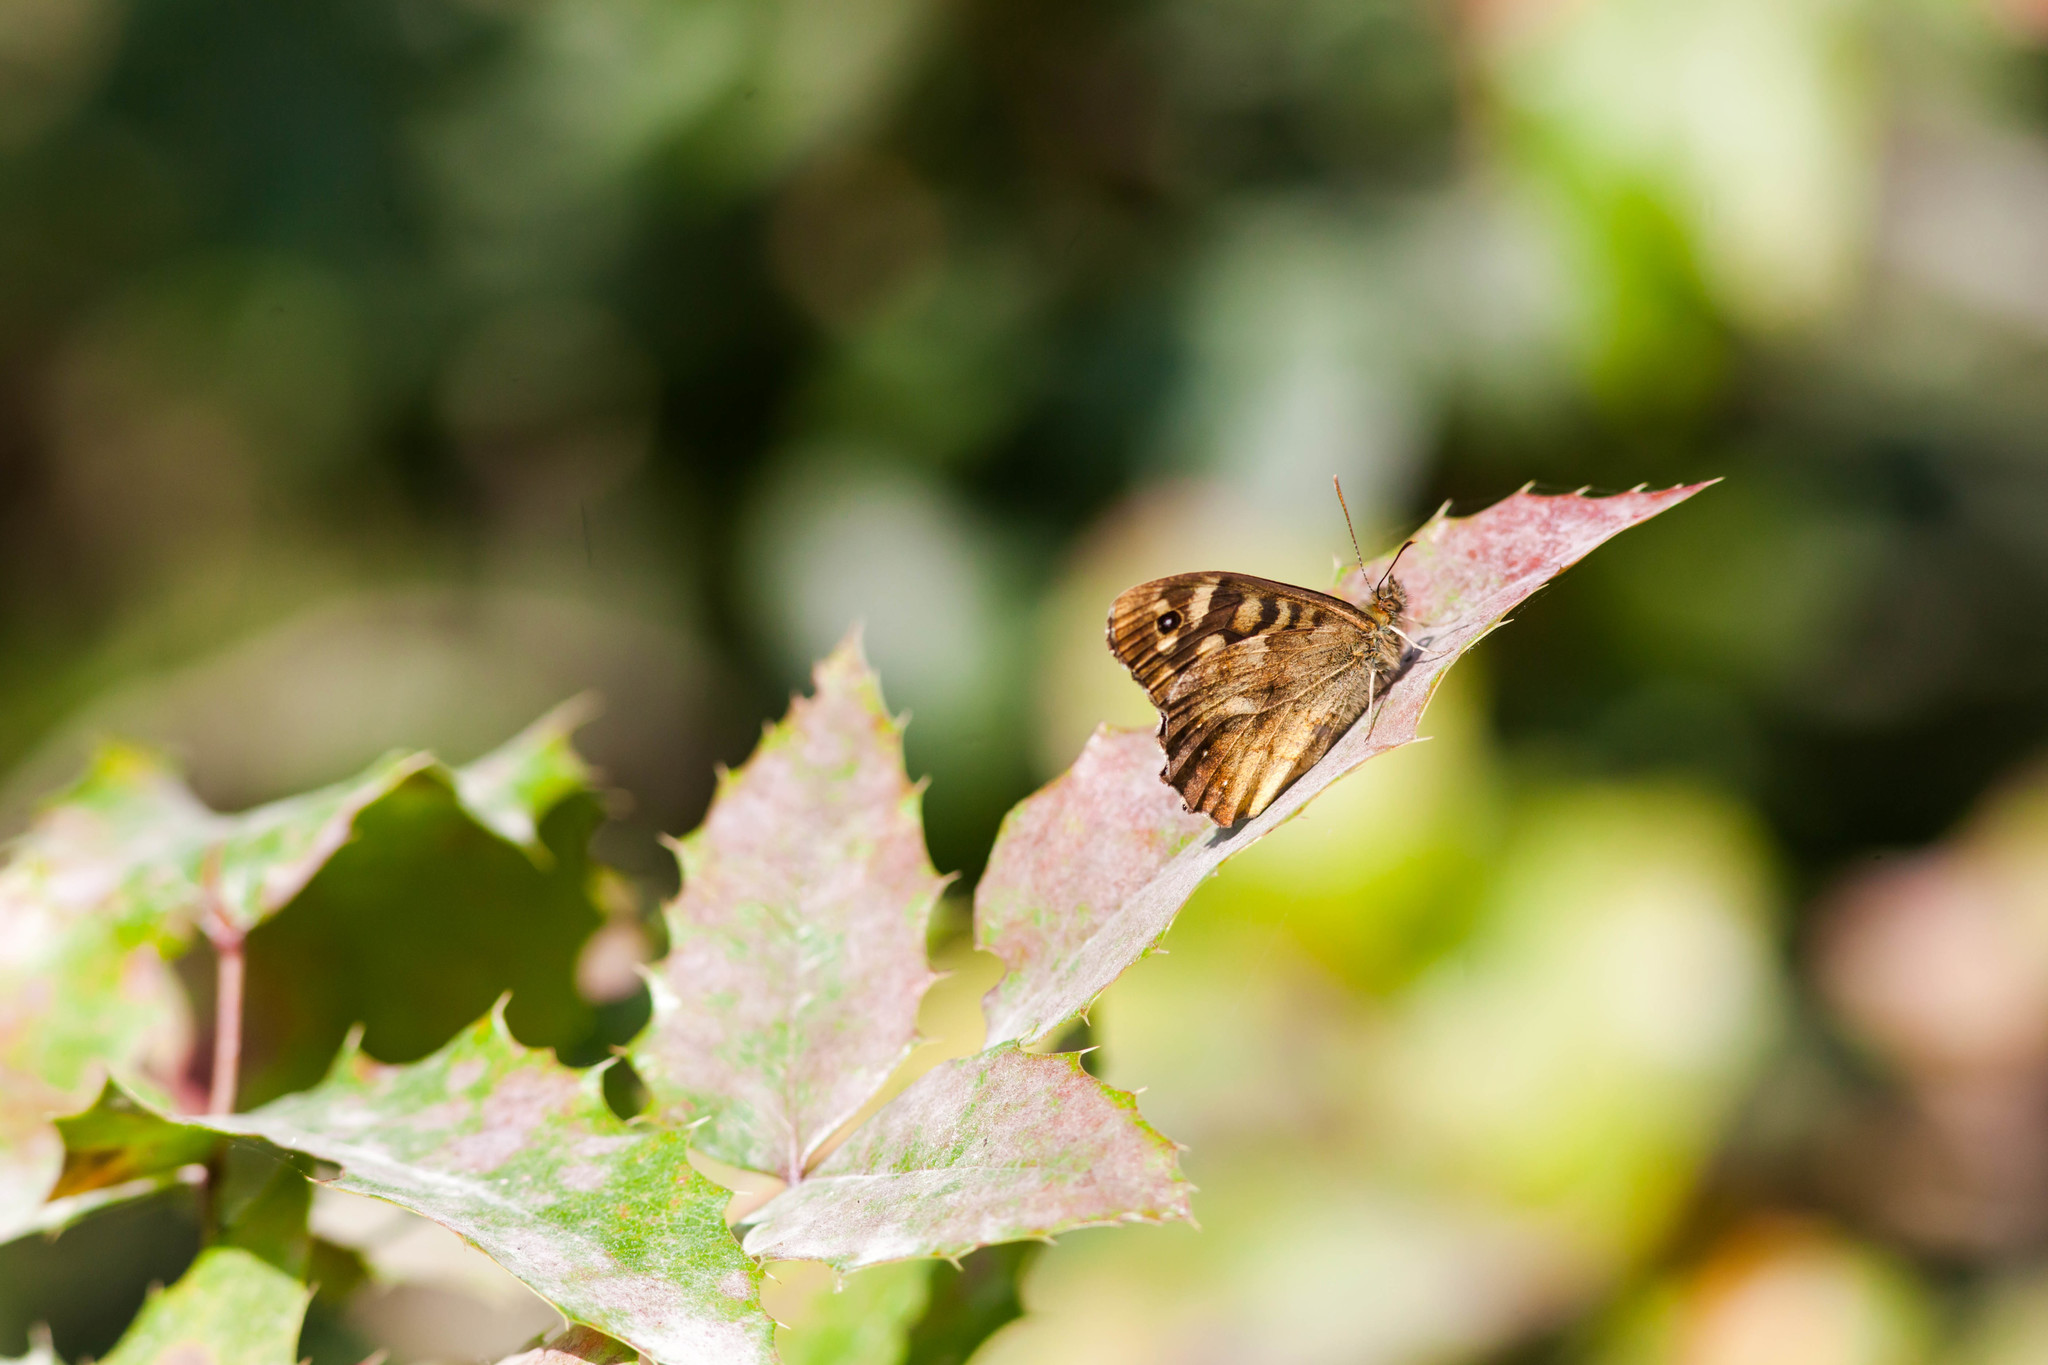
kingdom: Animalia
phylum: Arthropoda
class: Insecta
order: Lepidoptera
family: Nymphalidae
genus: Pararge
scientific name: Pararge aegeria
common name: Speckled wood
